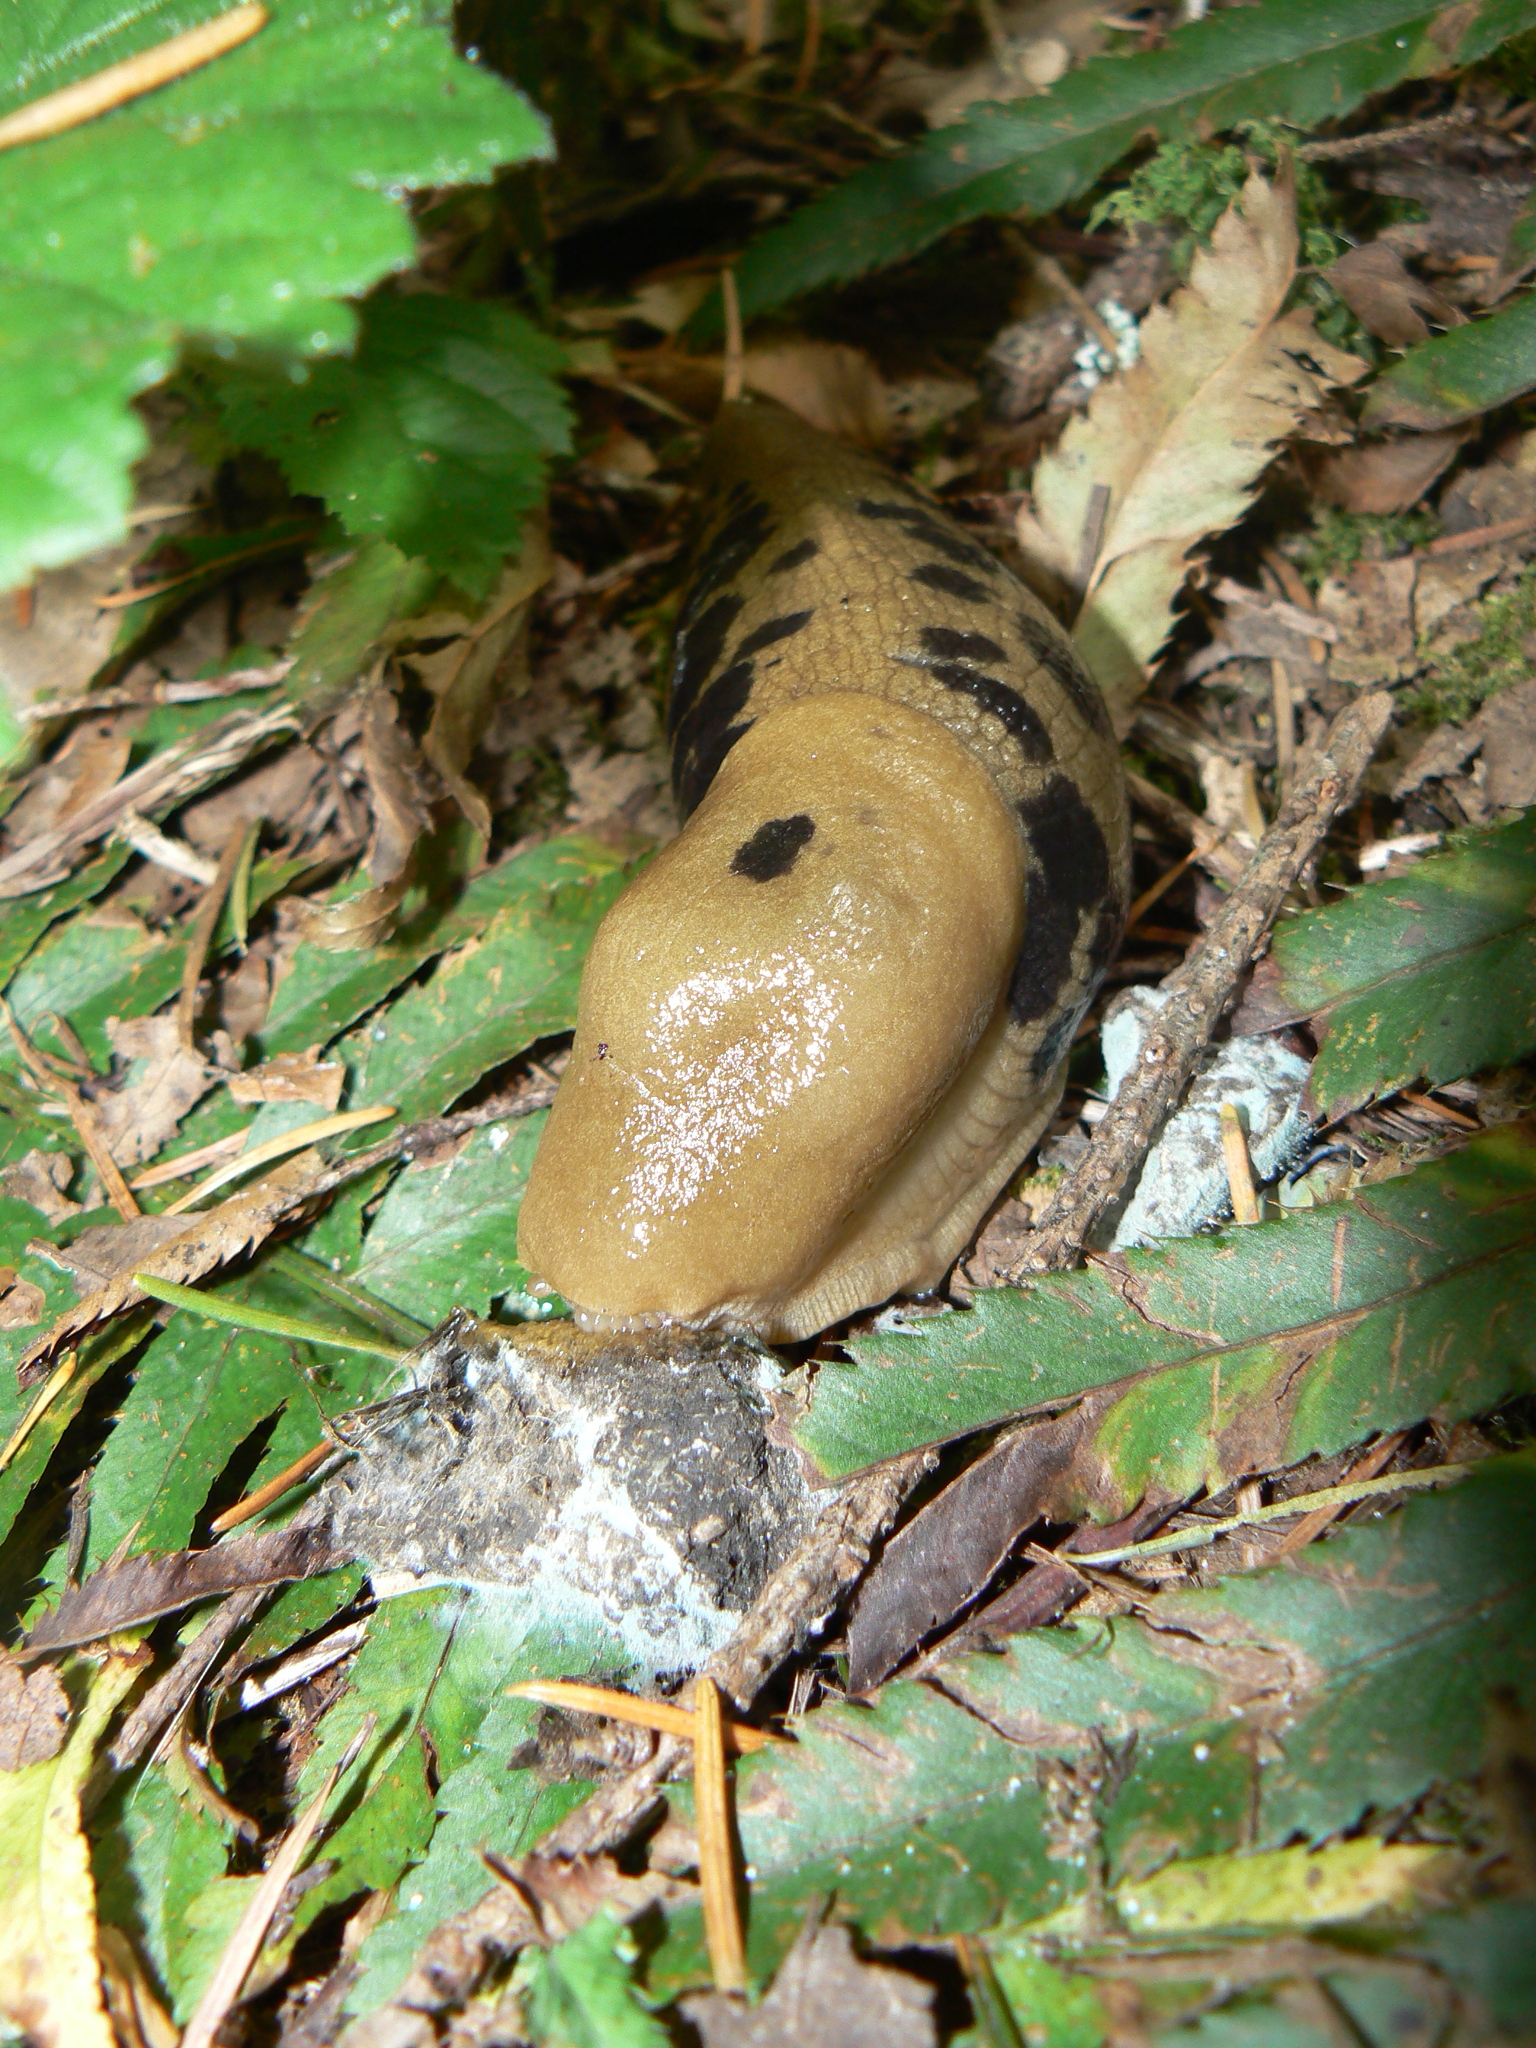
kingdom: Animalia
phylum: Mollusca
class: Gastropoda
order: Stylommatophora
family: Ariolimacidae
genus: Ariolimax
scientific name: Ariolimax columbianus
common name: Pacific banana slug
